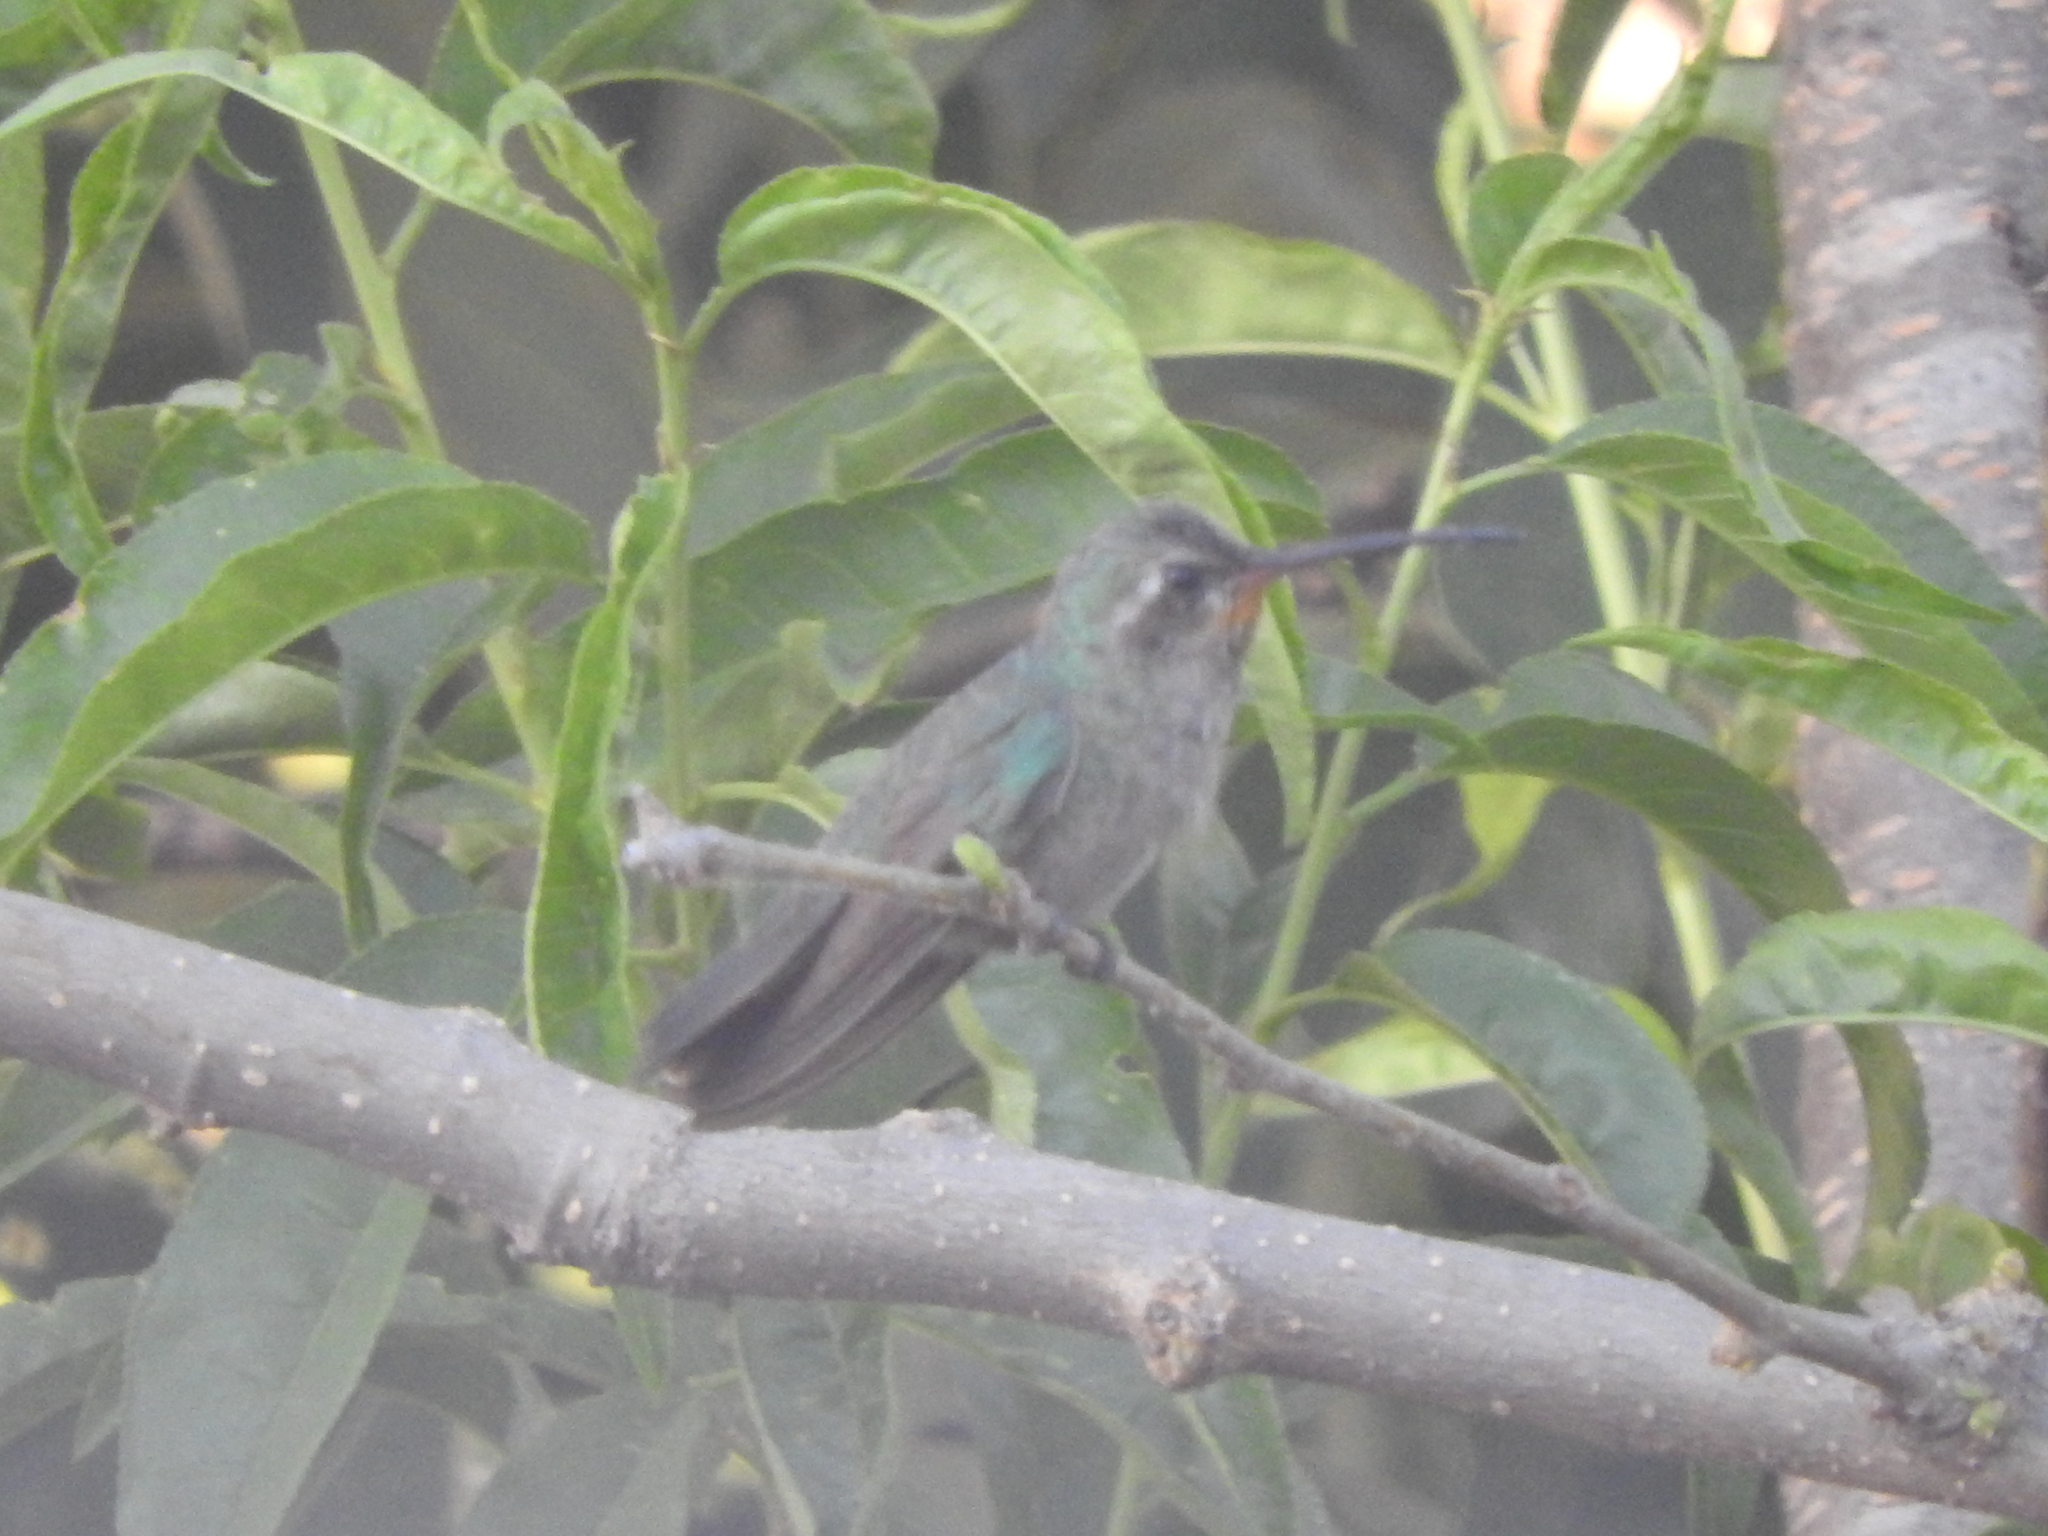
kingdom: Animalia
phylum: Chordata
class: Aves
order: Apodiformes
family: Trochilidae
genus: Cynanthus
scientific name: Cynanthus latirostris
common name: Broad-billed hummingbird
